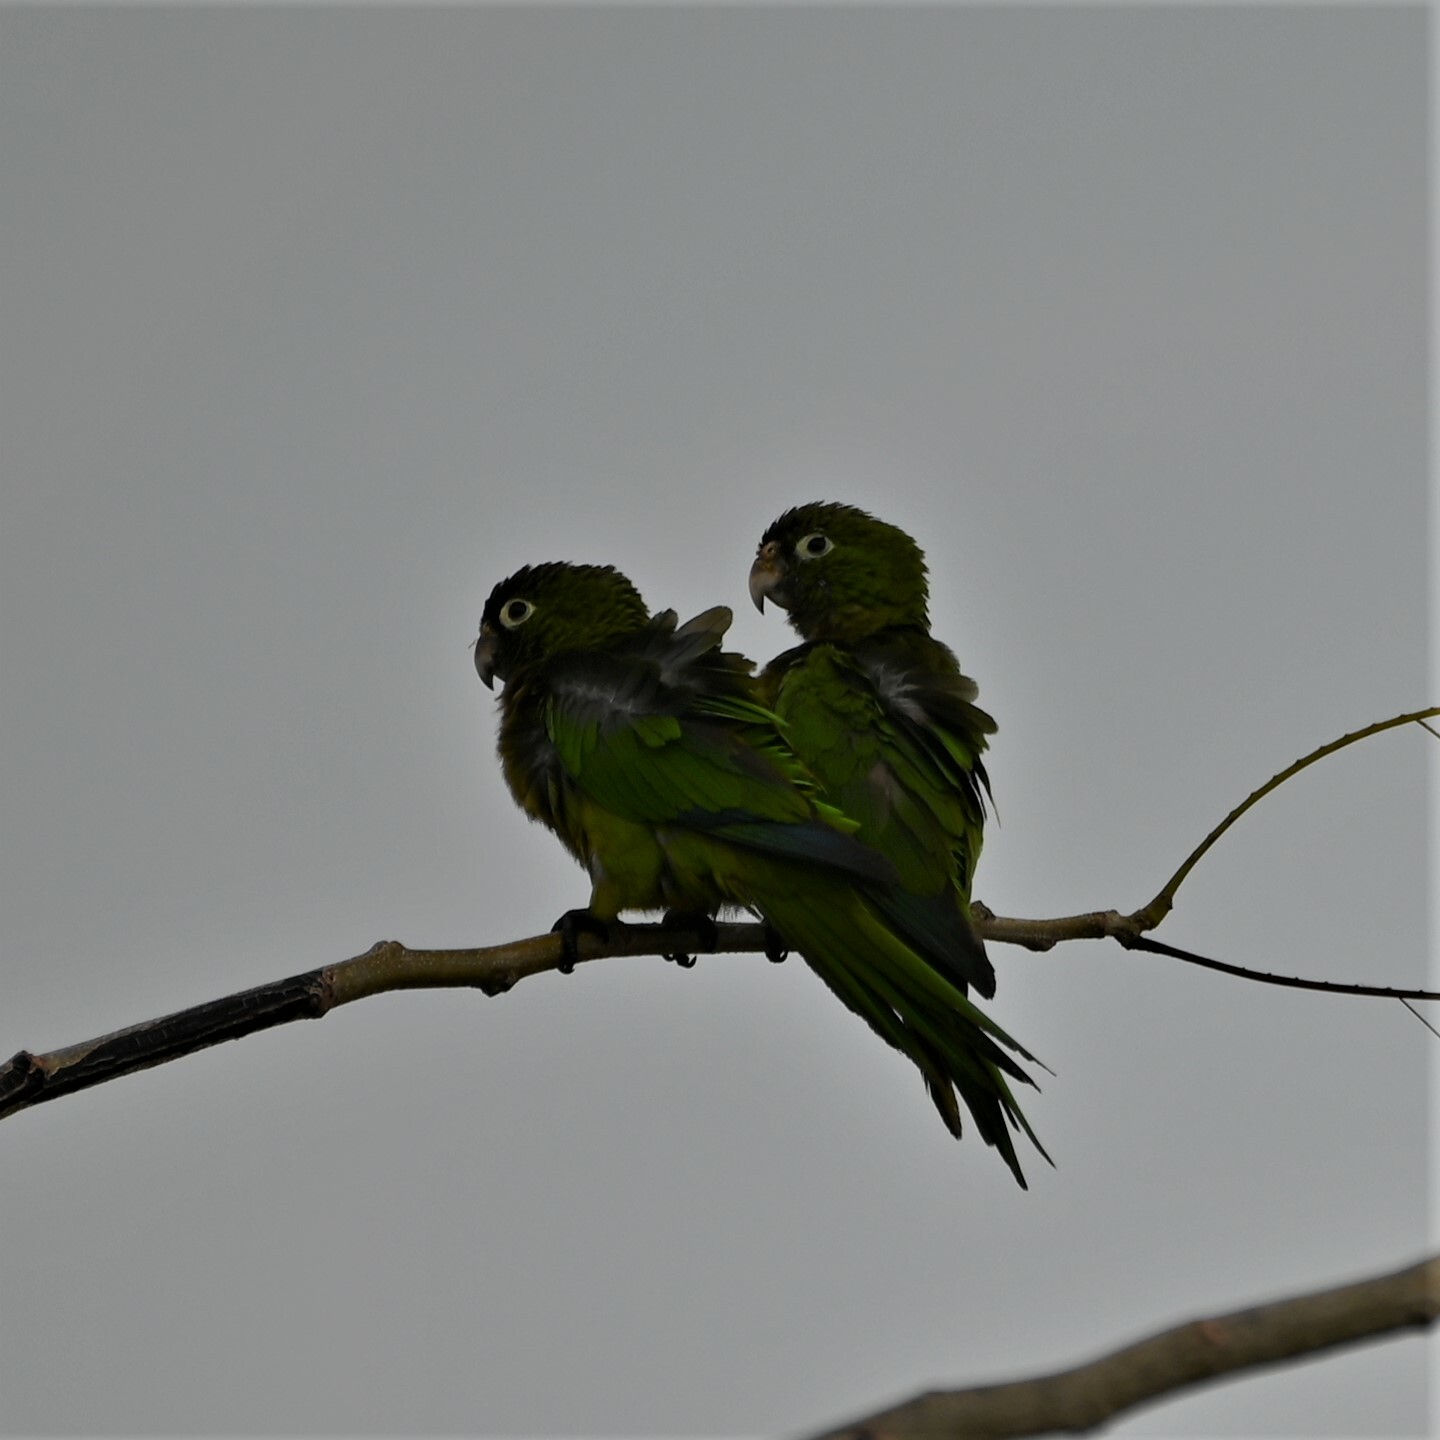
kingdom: Animalia
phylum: Chordata
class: Aves
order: Psittaciformes
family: Psittacidae
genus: Aratinga
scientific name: Aratinga nana
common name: Olive-throated parakeet
